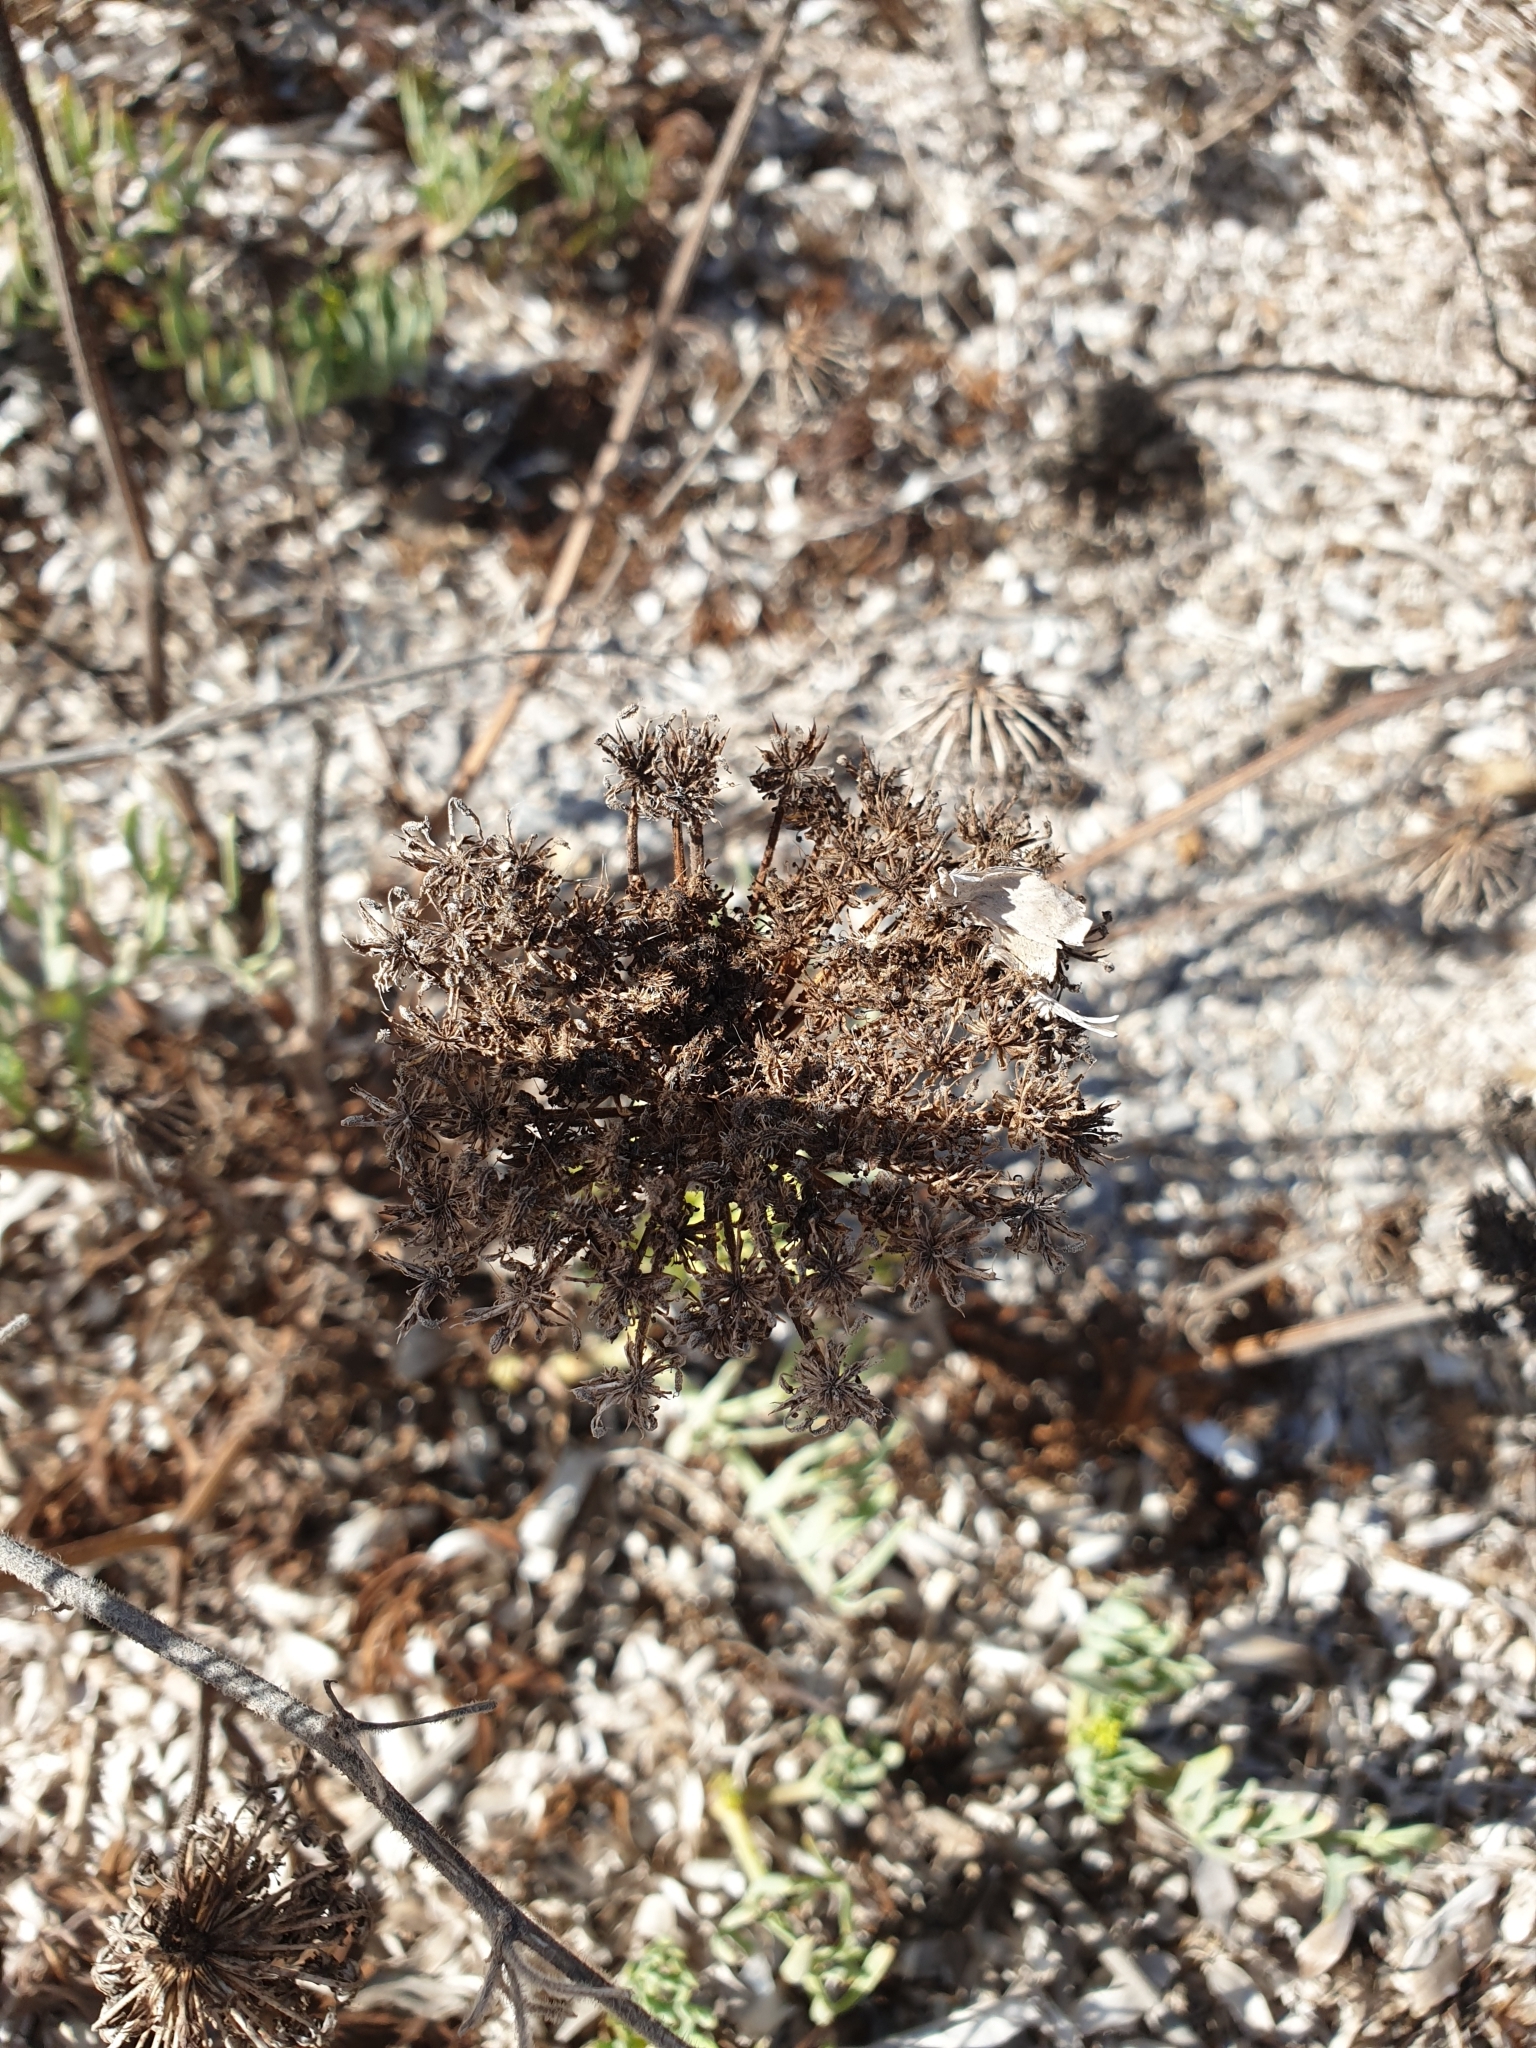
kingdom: Plantae
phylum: Tracheophyta
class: Magnoliopsida
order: Apiales
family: Apiaceae
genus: Daucus
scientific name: Daucus carota
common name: Wild carrot
